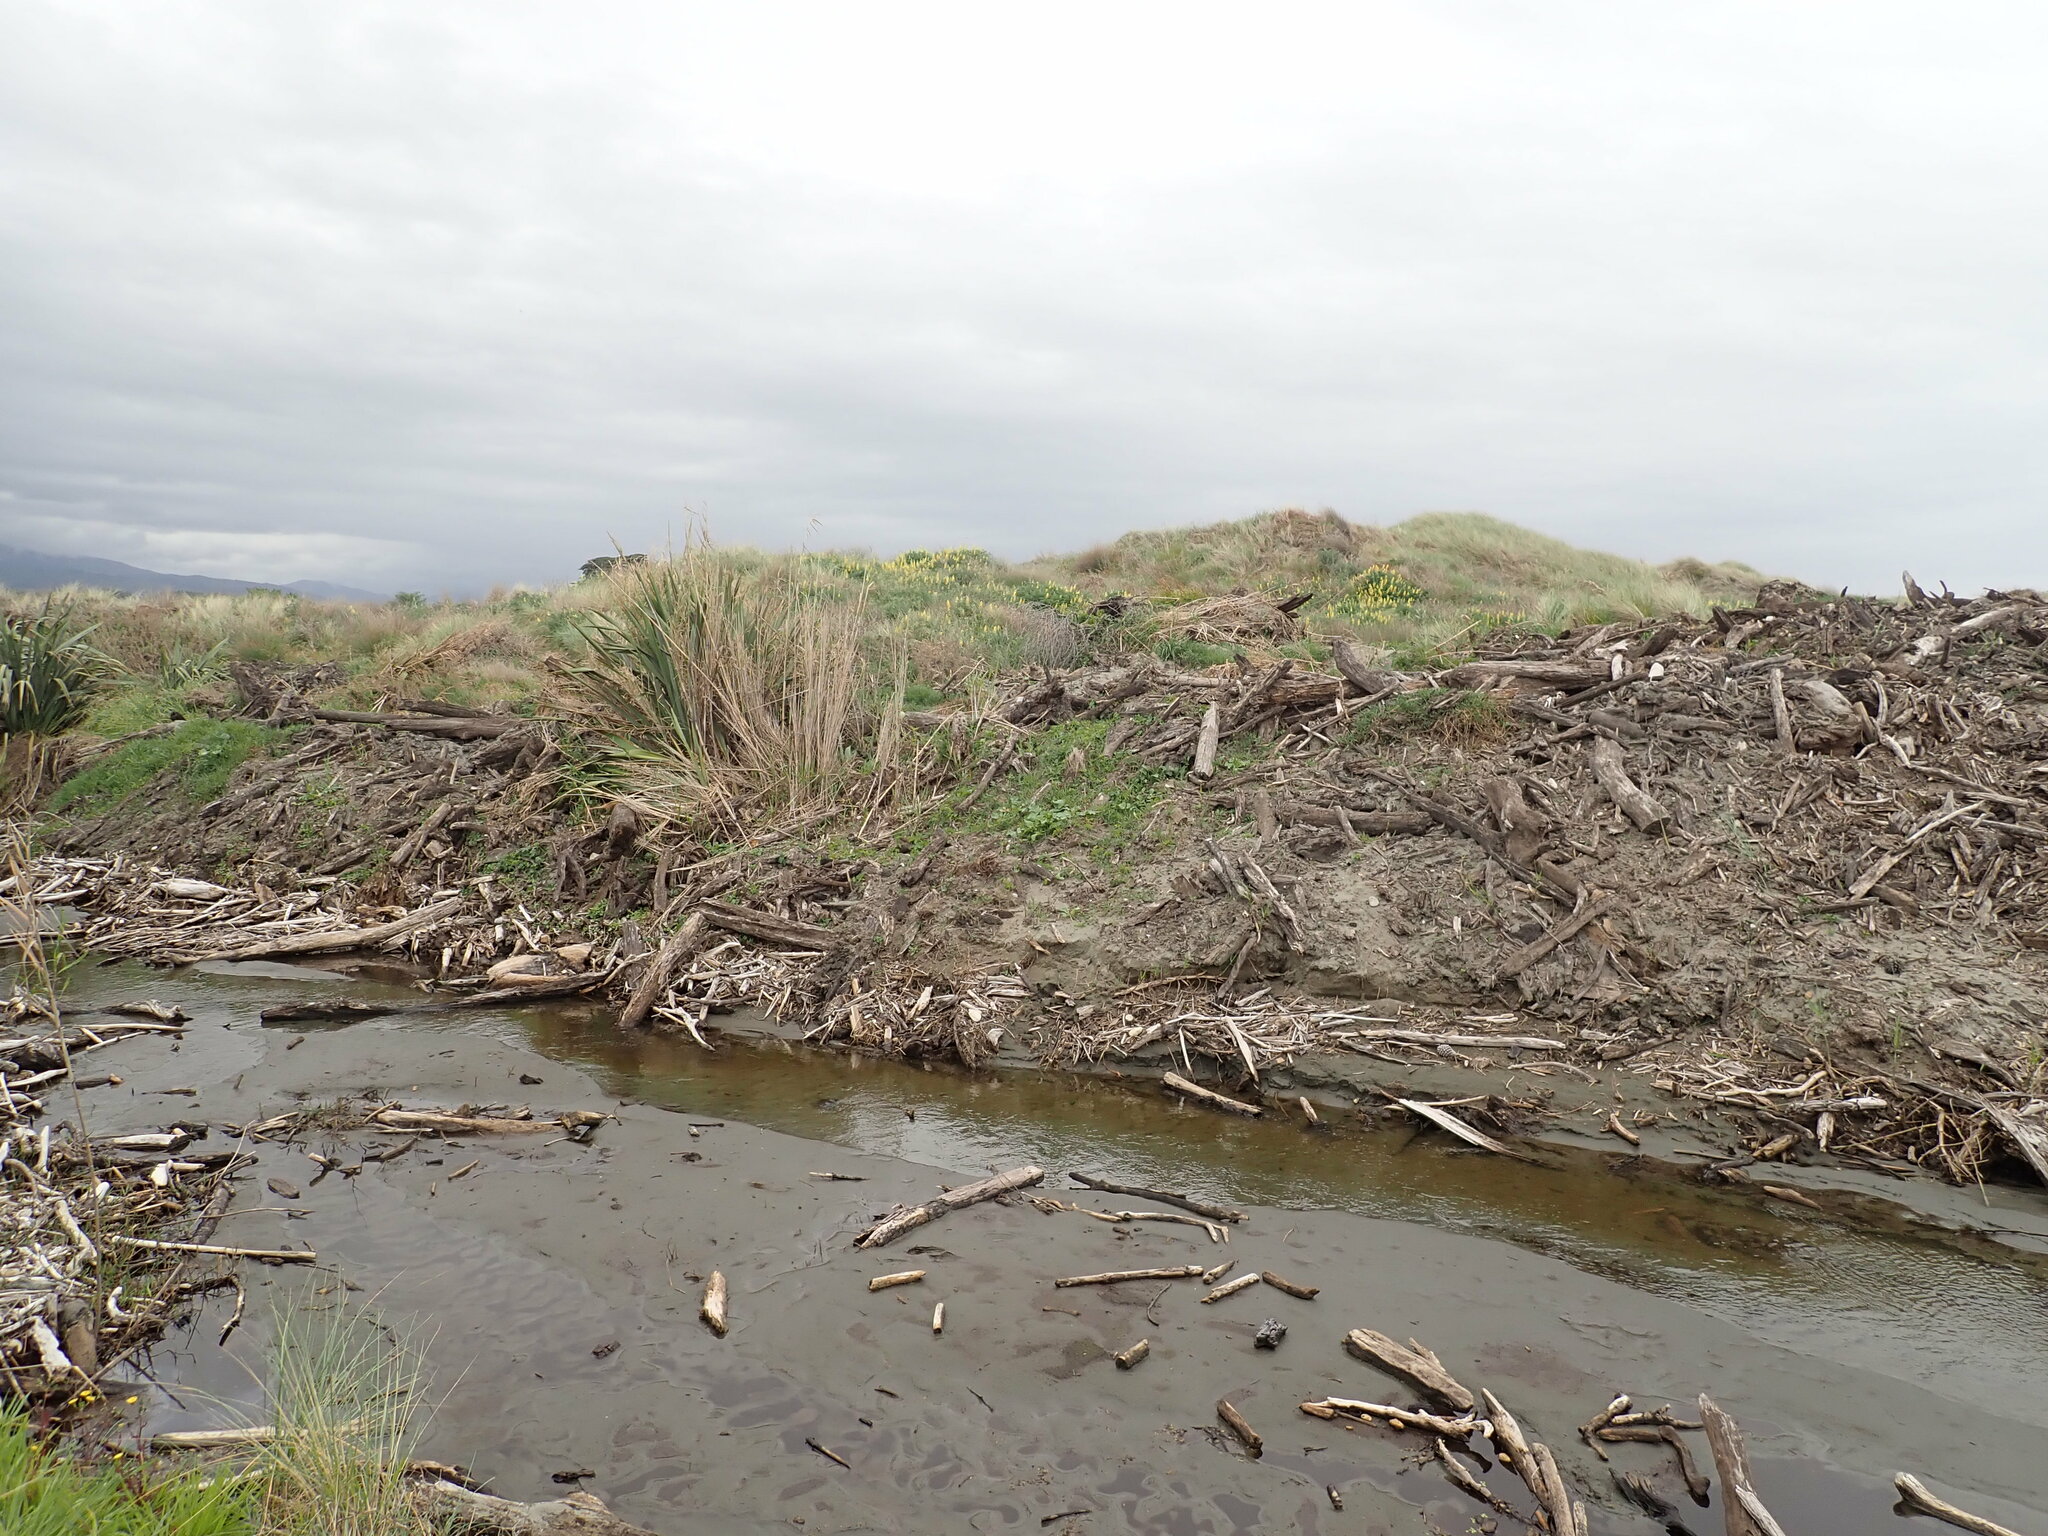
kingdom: Plantae
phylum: Tracheophyta
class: Liliopsida
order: Poales
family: Poaceae
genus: Phragmites
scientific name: Phragmites karka
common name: Tropical reed
